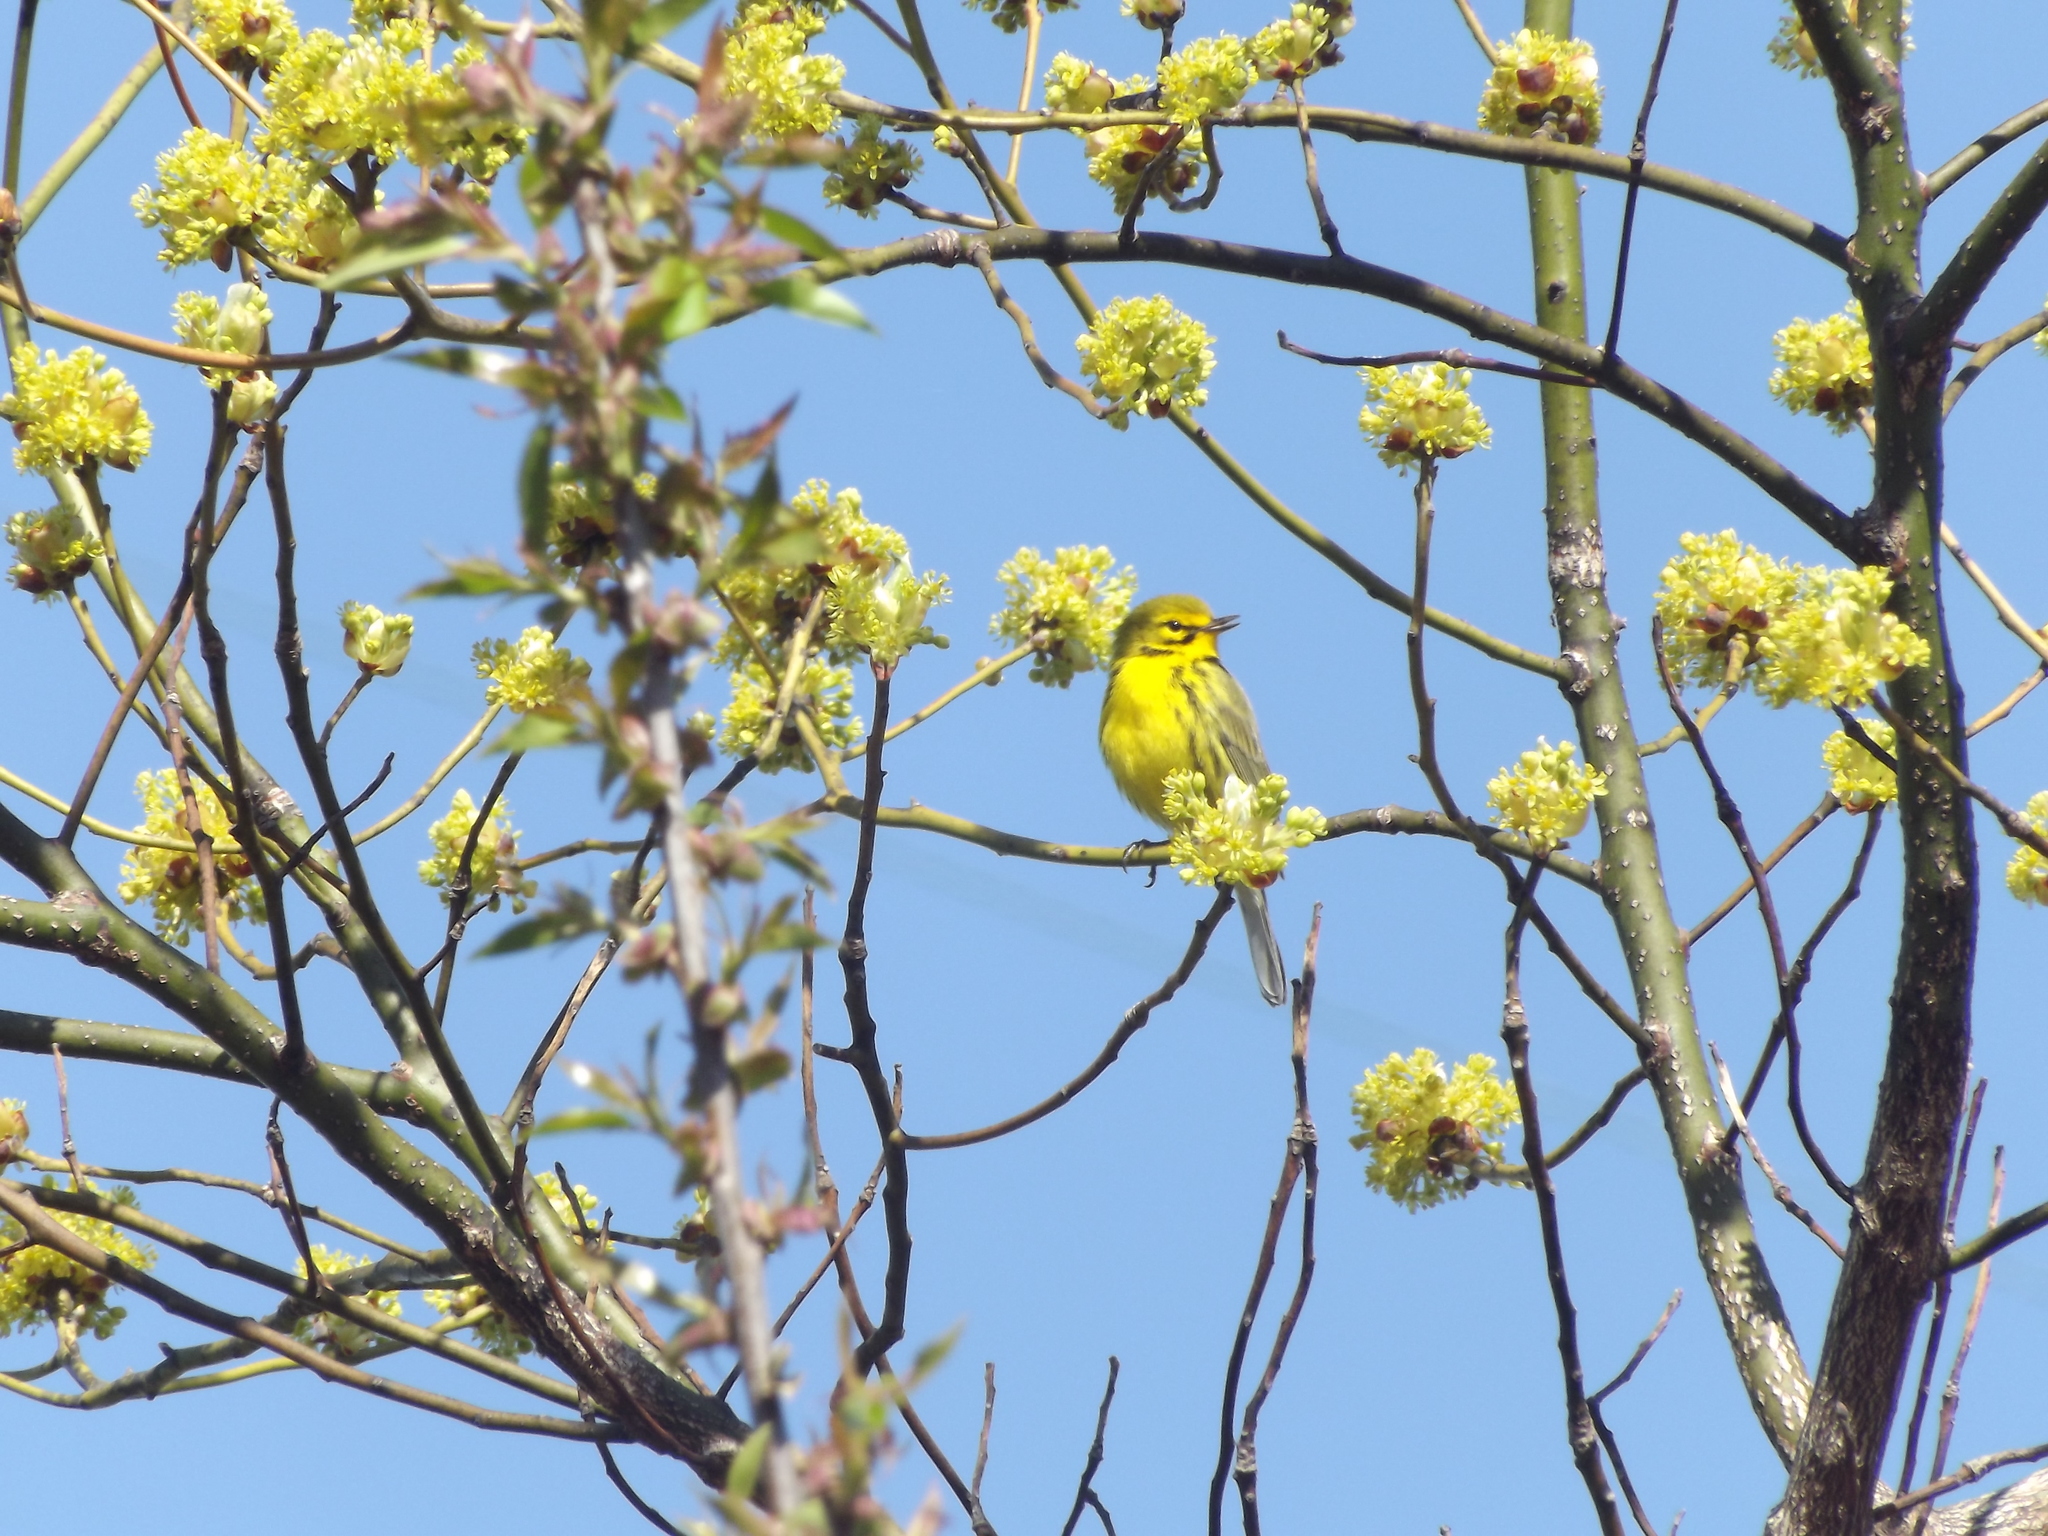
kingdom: Animalia
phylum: Chordata
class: Aves
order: Passeriformes
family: Parulidae
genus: Setophaga
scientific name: Setophaga discolor
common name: Prairie warbler
